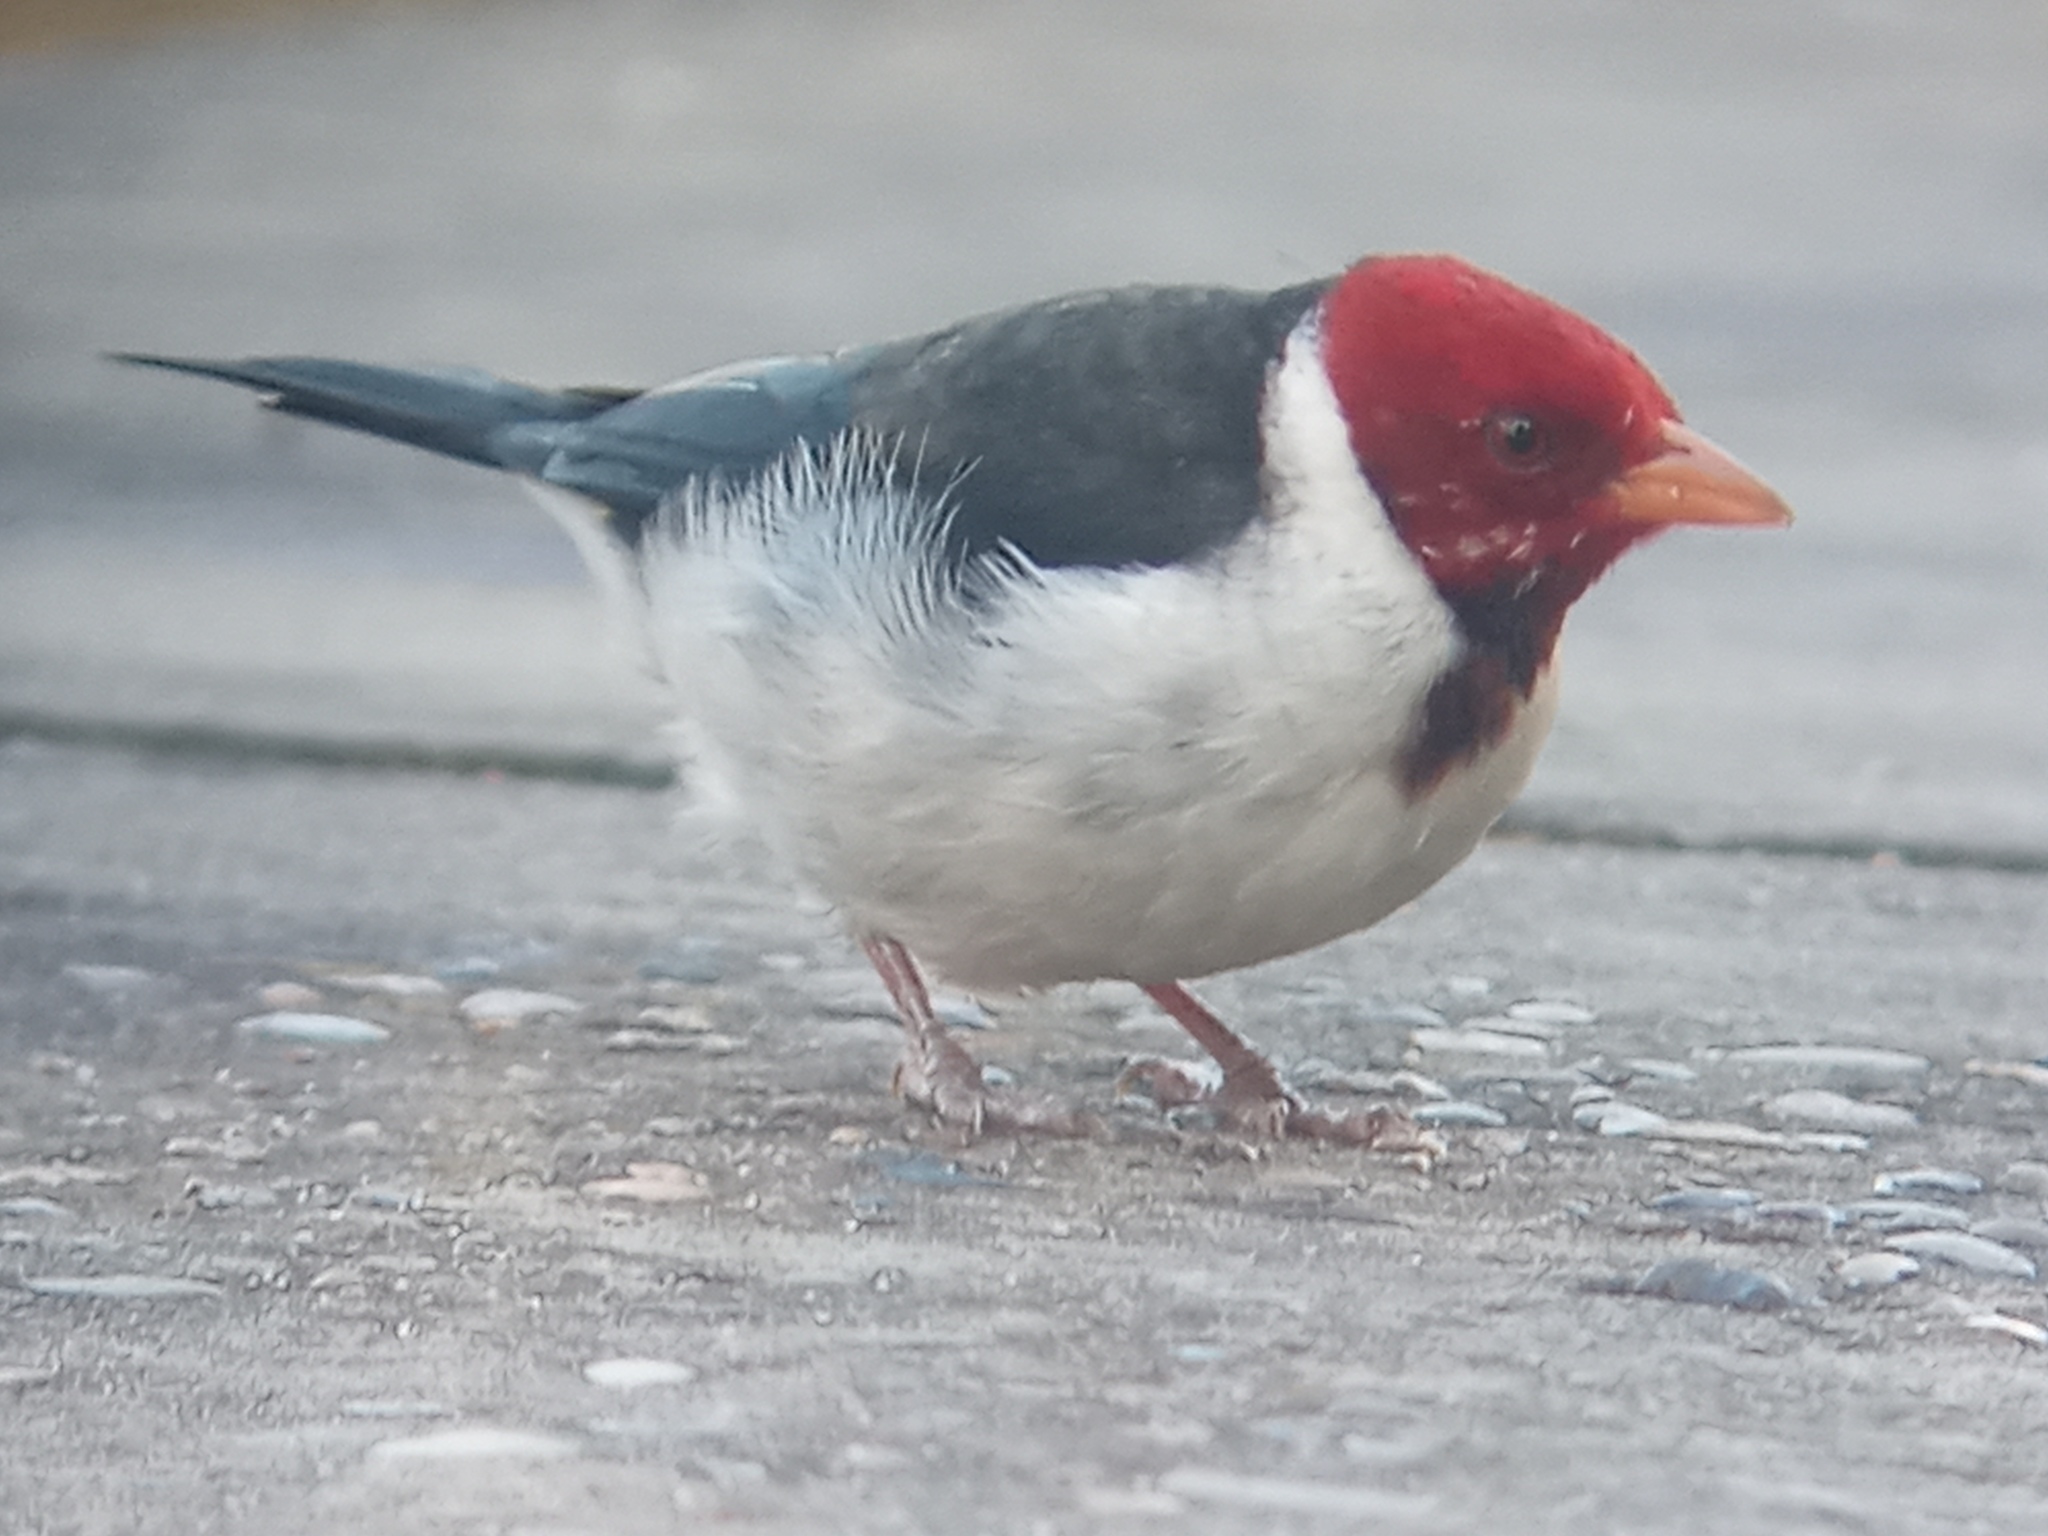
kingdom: Animalia
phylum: Chordata
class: Aves
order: Passeriformes
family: Thraupidae
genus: Paroaria
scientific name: Paroaria capitata
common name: Yellow-billed cardinal
